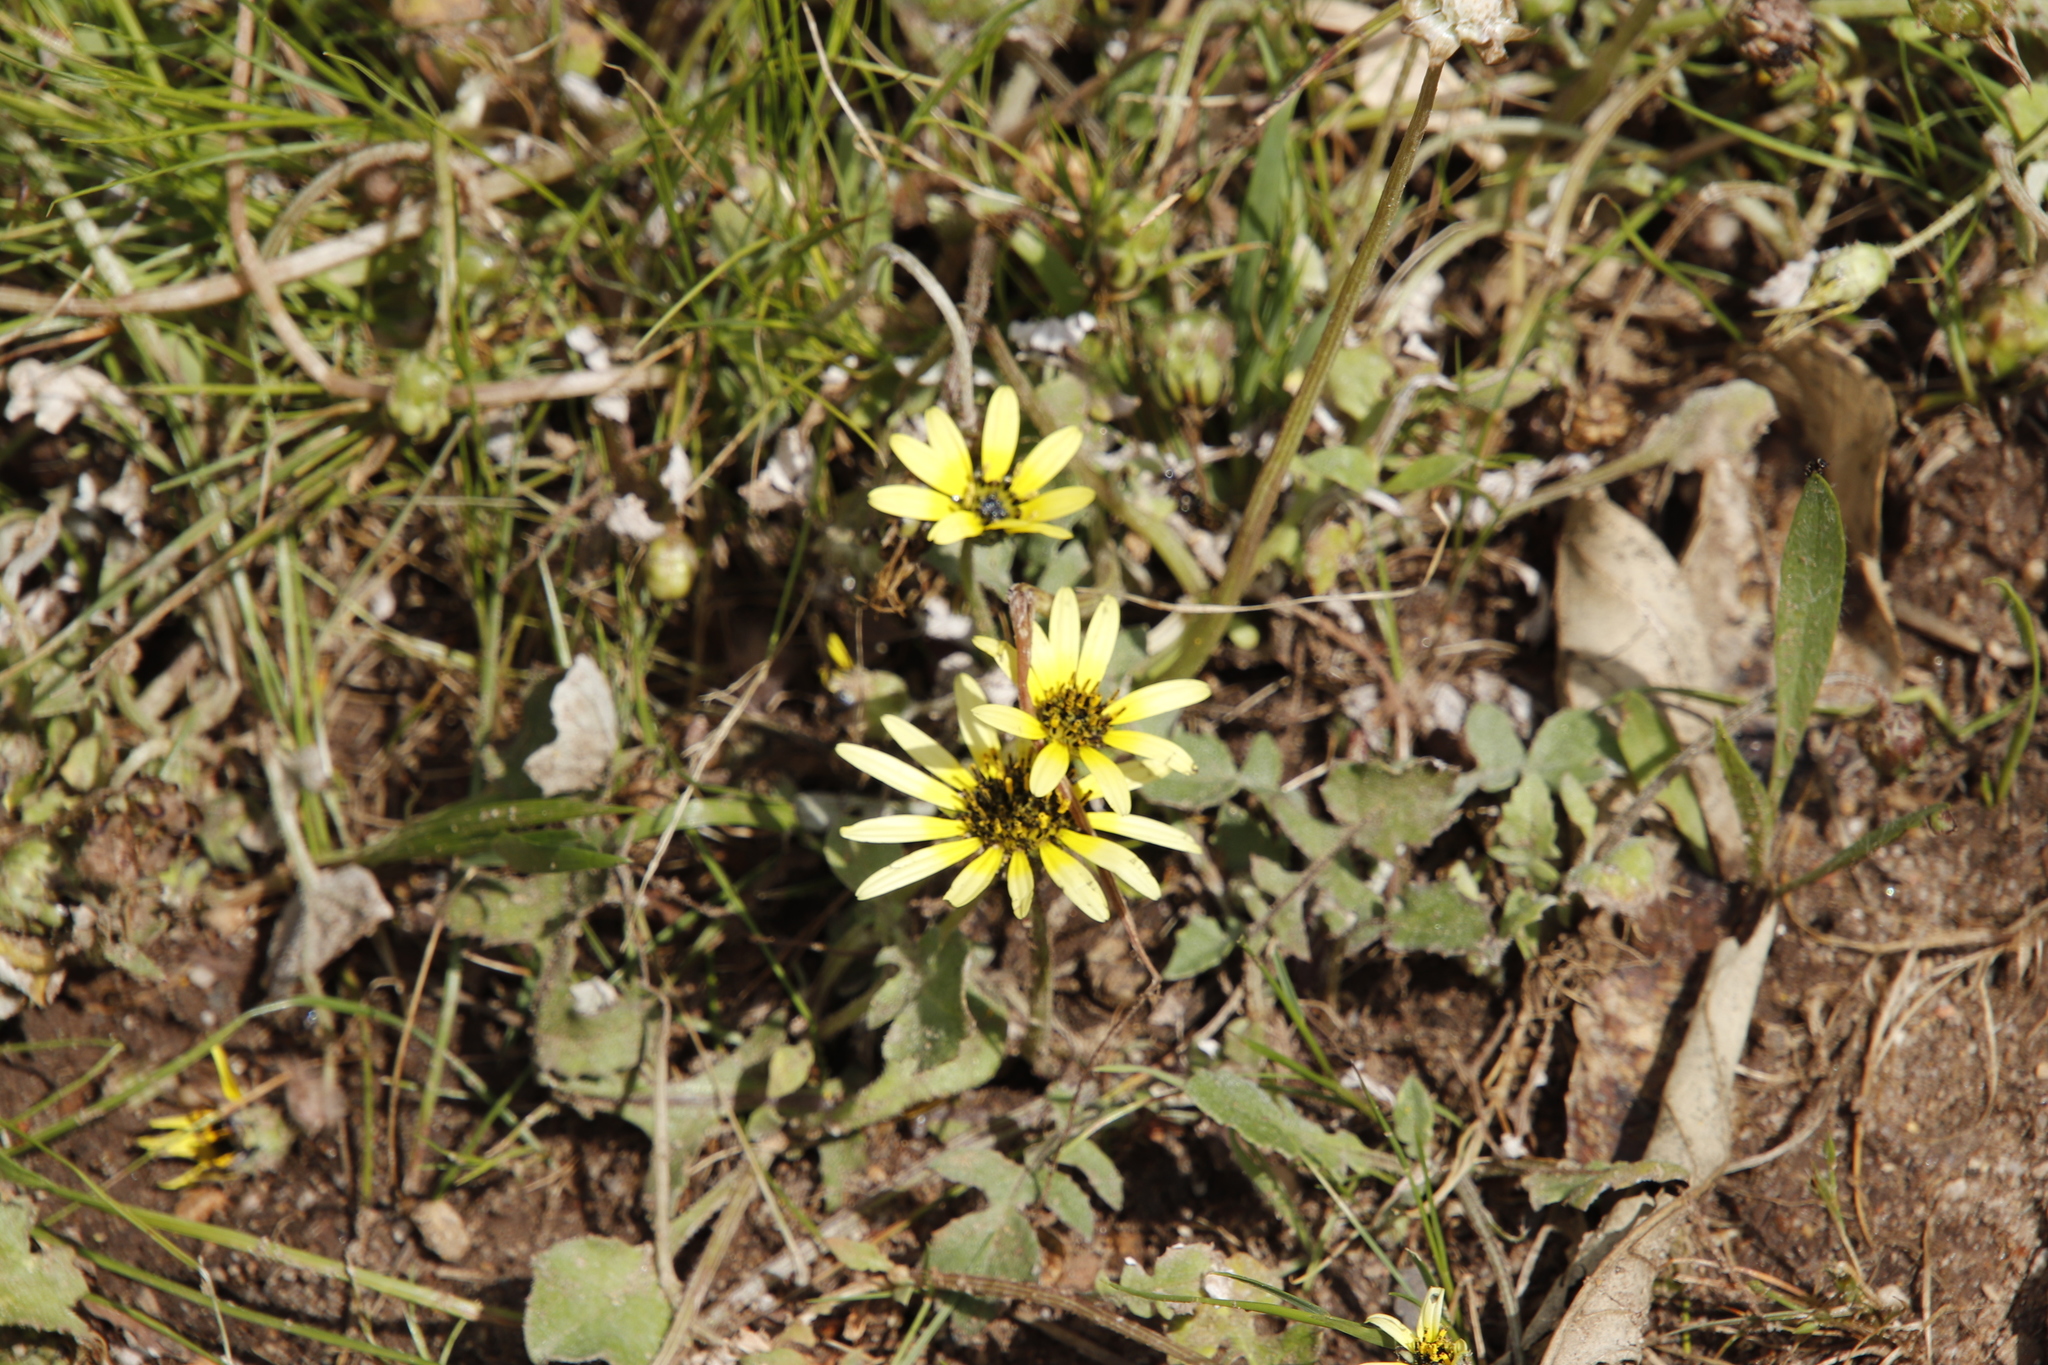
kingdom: Plantae
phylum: Tracheophyta
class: Magnoliopsida
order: Asterales
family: Asteraceae
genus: Arctotheca
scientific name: Arctotheca calendula
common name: Capeweed
